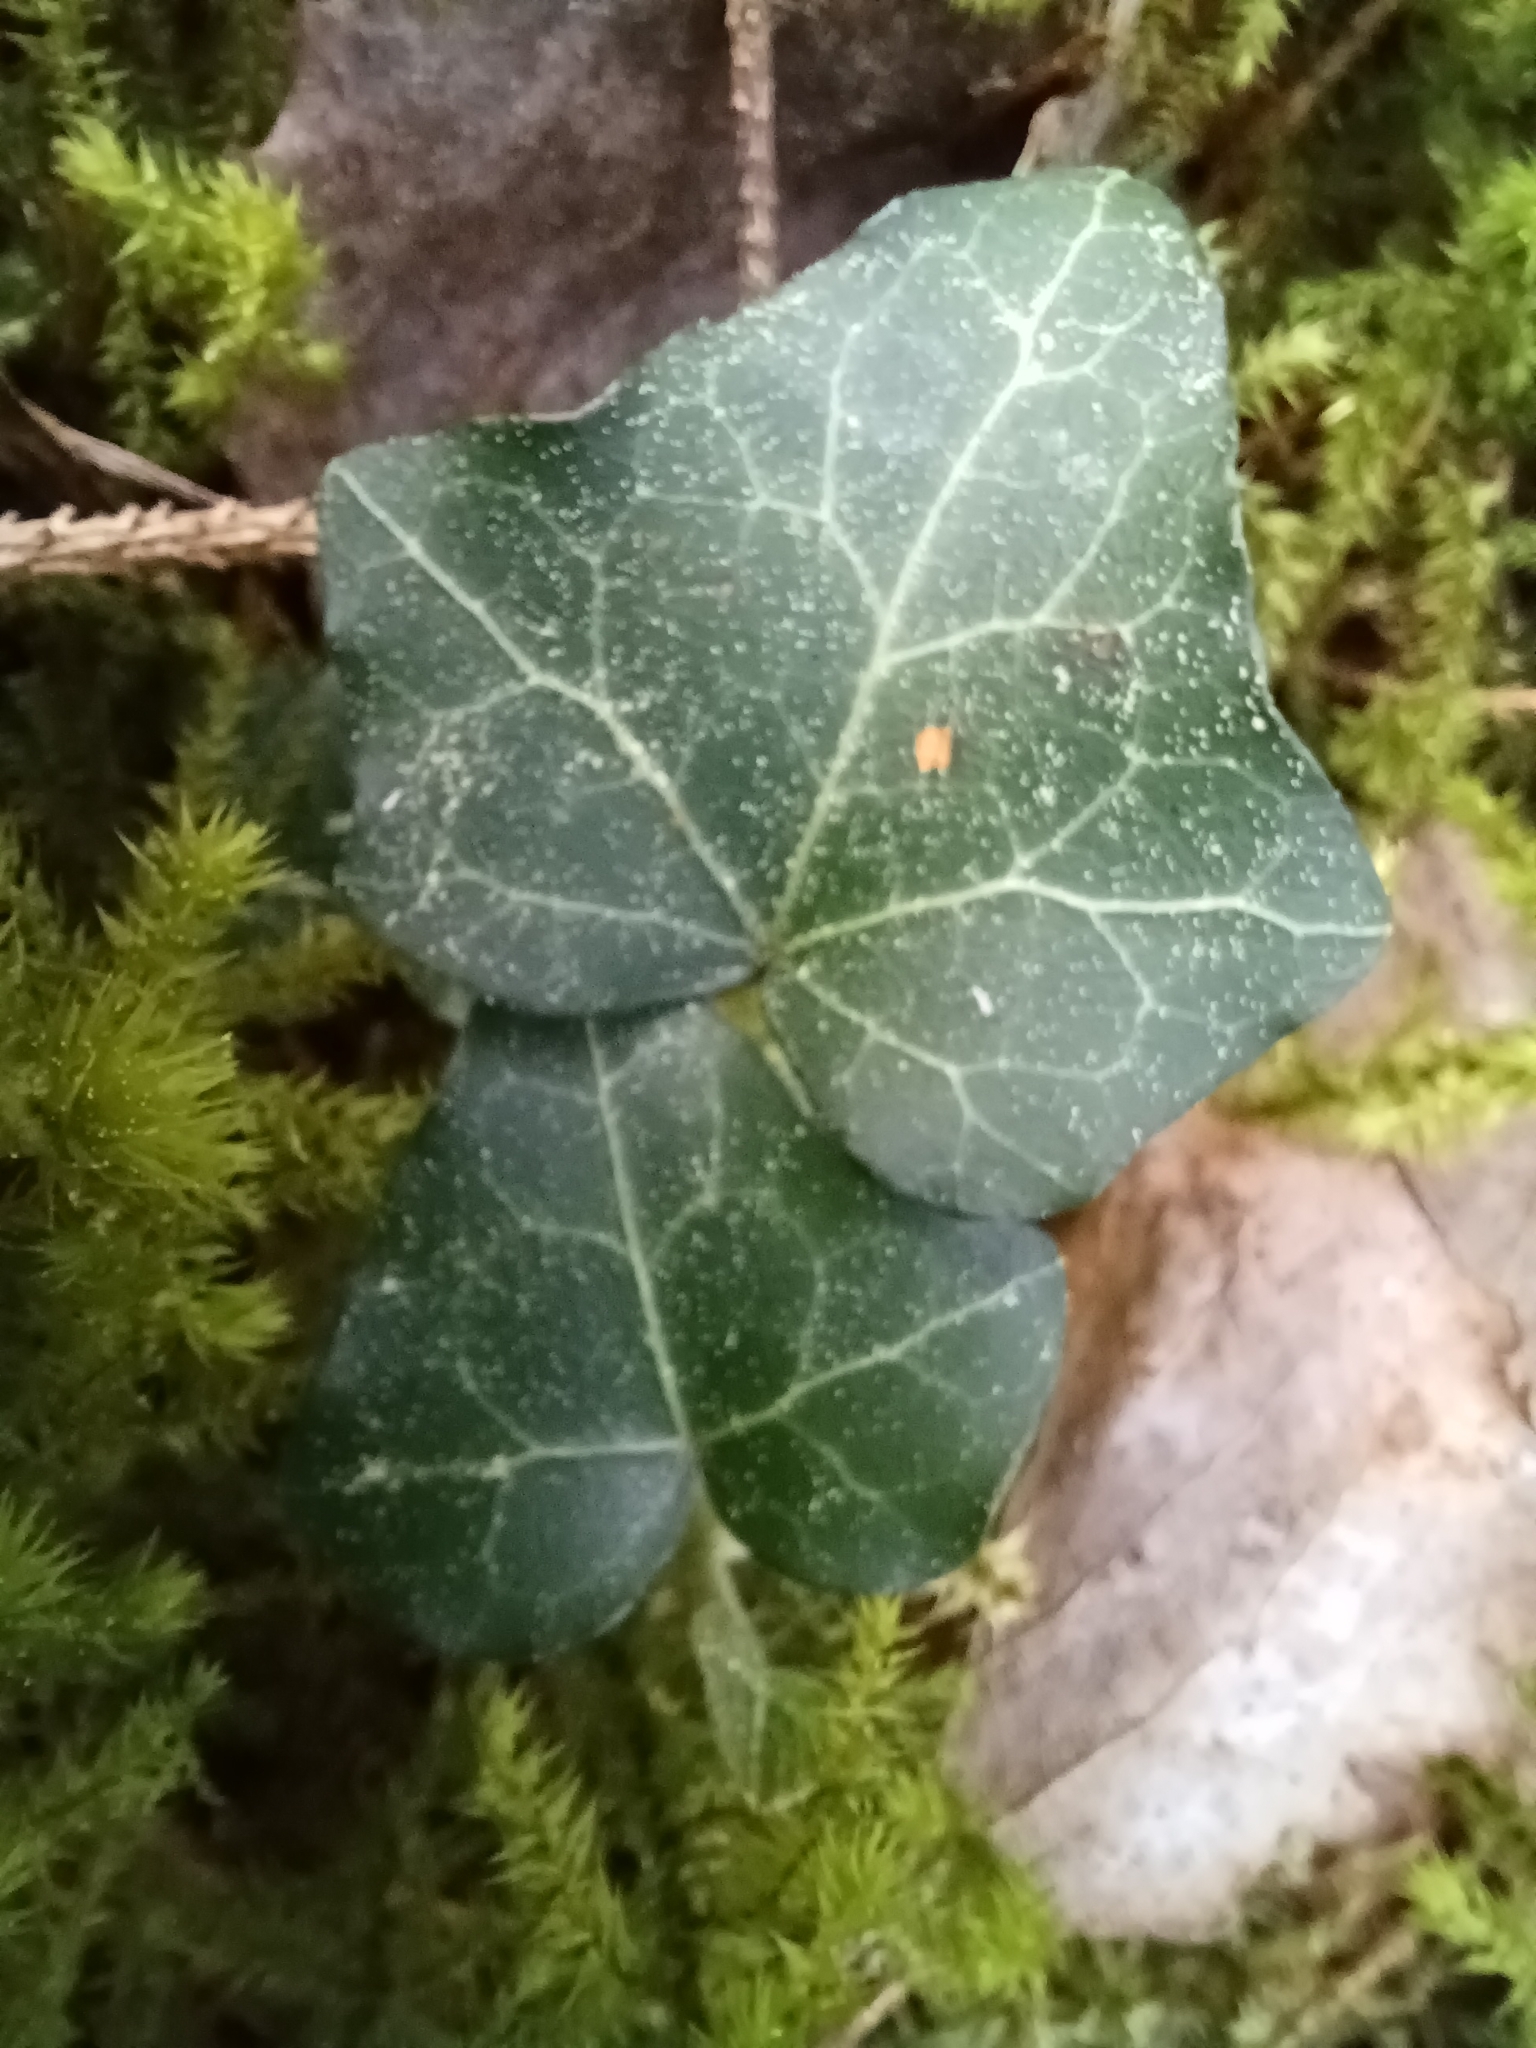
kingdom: Plantae
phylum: Tracheophyta
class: Magnoliopsida
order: Apiales
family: Araliaceae
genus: Hedera
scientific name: Hedera helix
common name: Ivy
